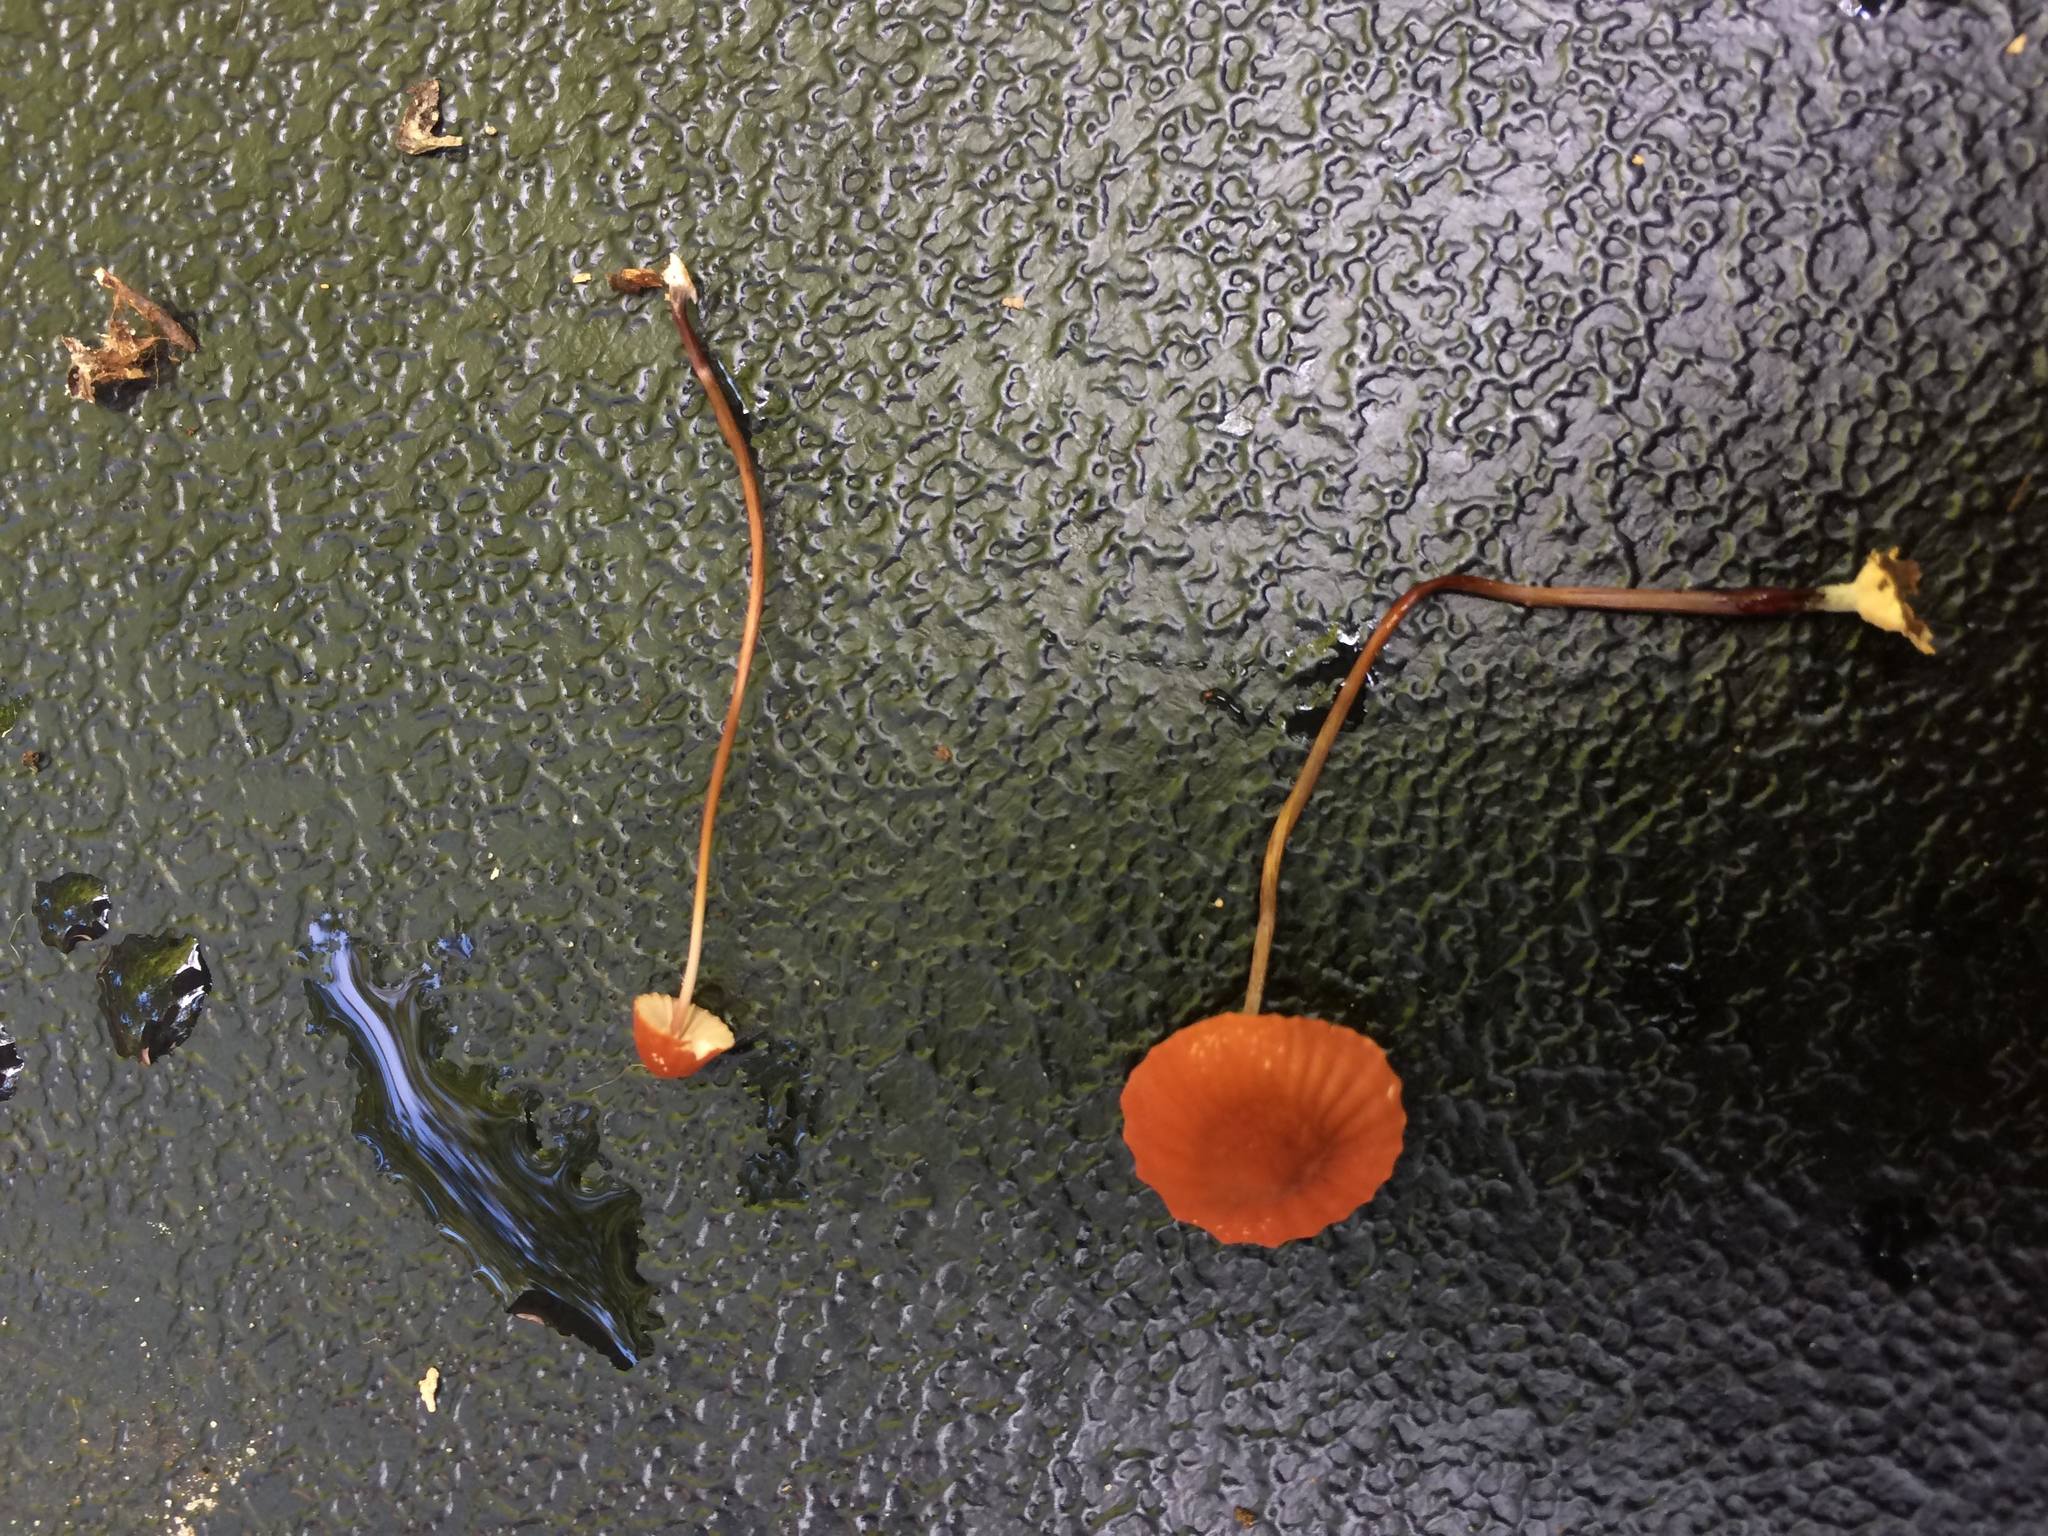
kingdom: Fungi
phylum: Basidiomycota
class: Agaricomycetes
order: Agaricales
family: Marasmiaceae
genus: Marasmius
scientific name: Marasmius haematocephalus
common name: Purple pinwheel
